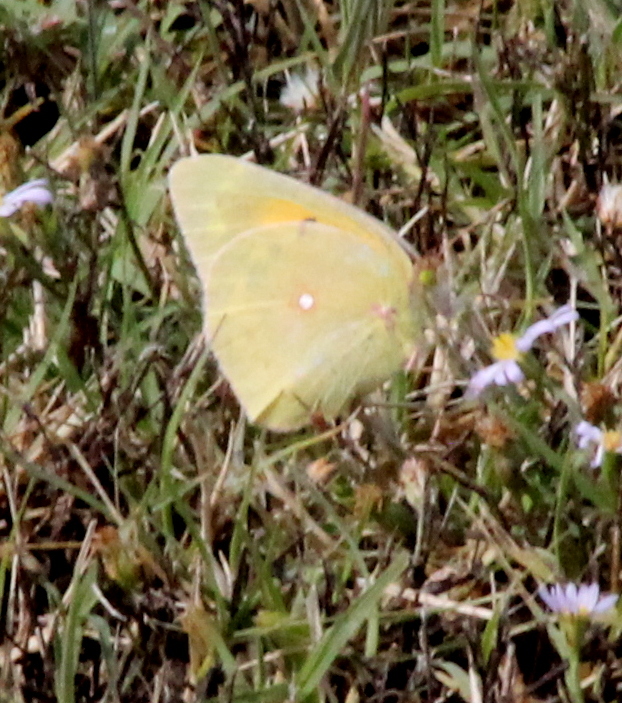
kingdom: Animalia
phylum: Arthropoda
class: Insecta
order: Lepidoptera
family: Pieridae
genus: Colias
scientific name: Colias eurytheme
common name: Alfalfa butterfly
